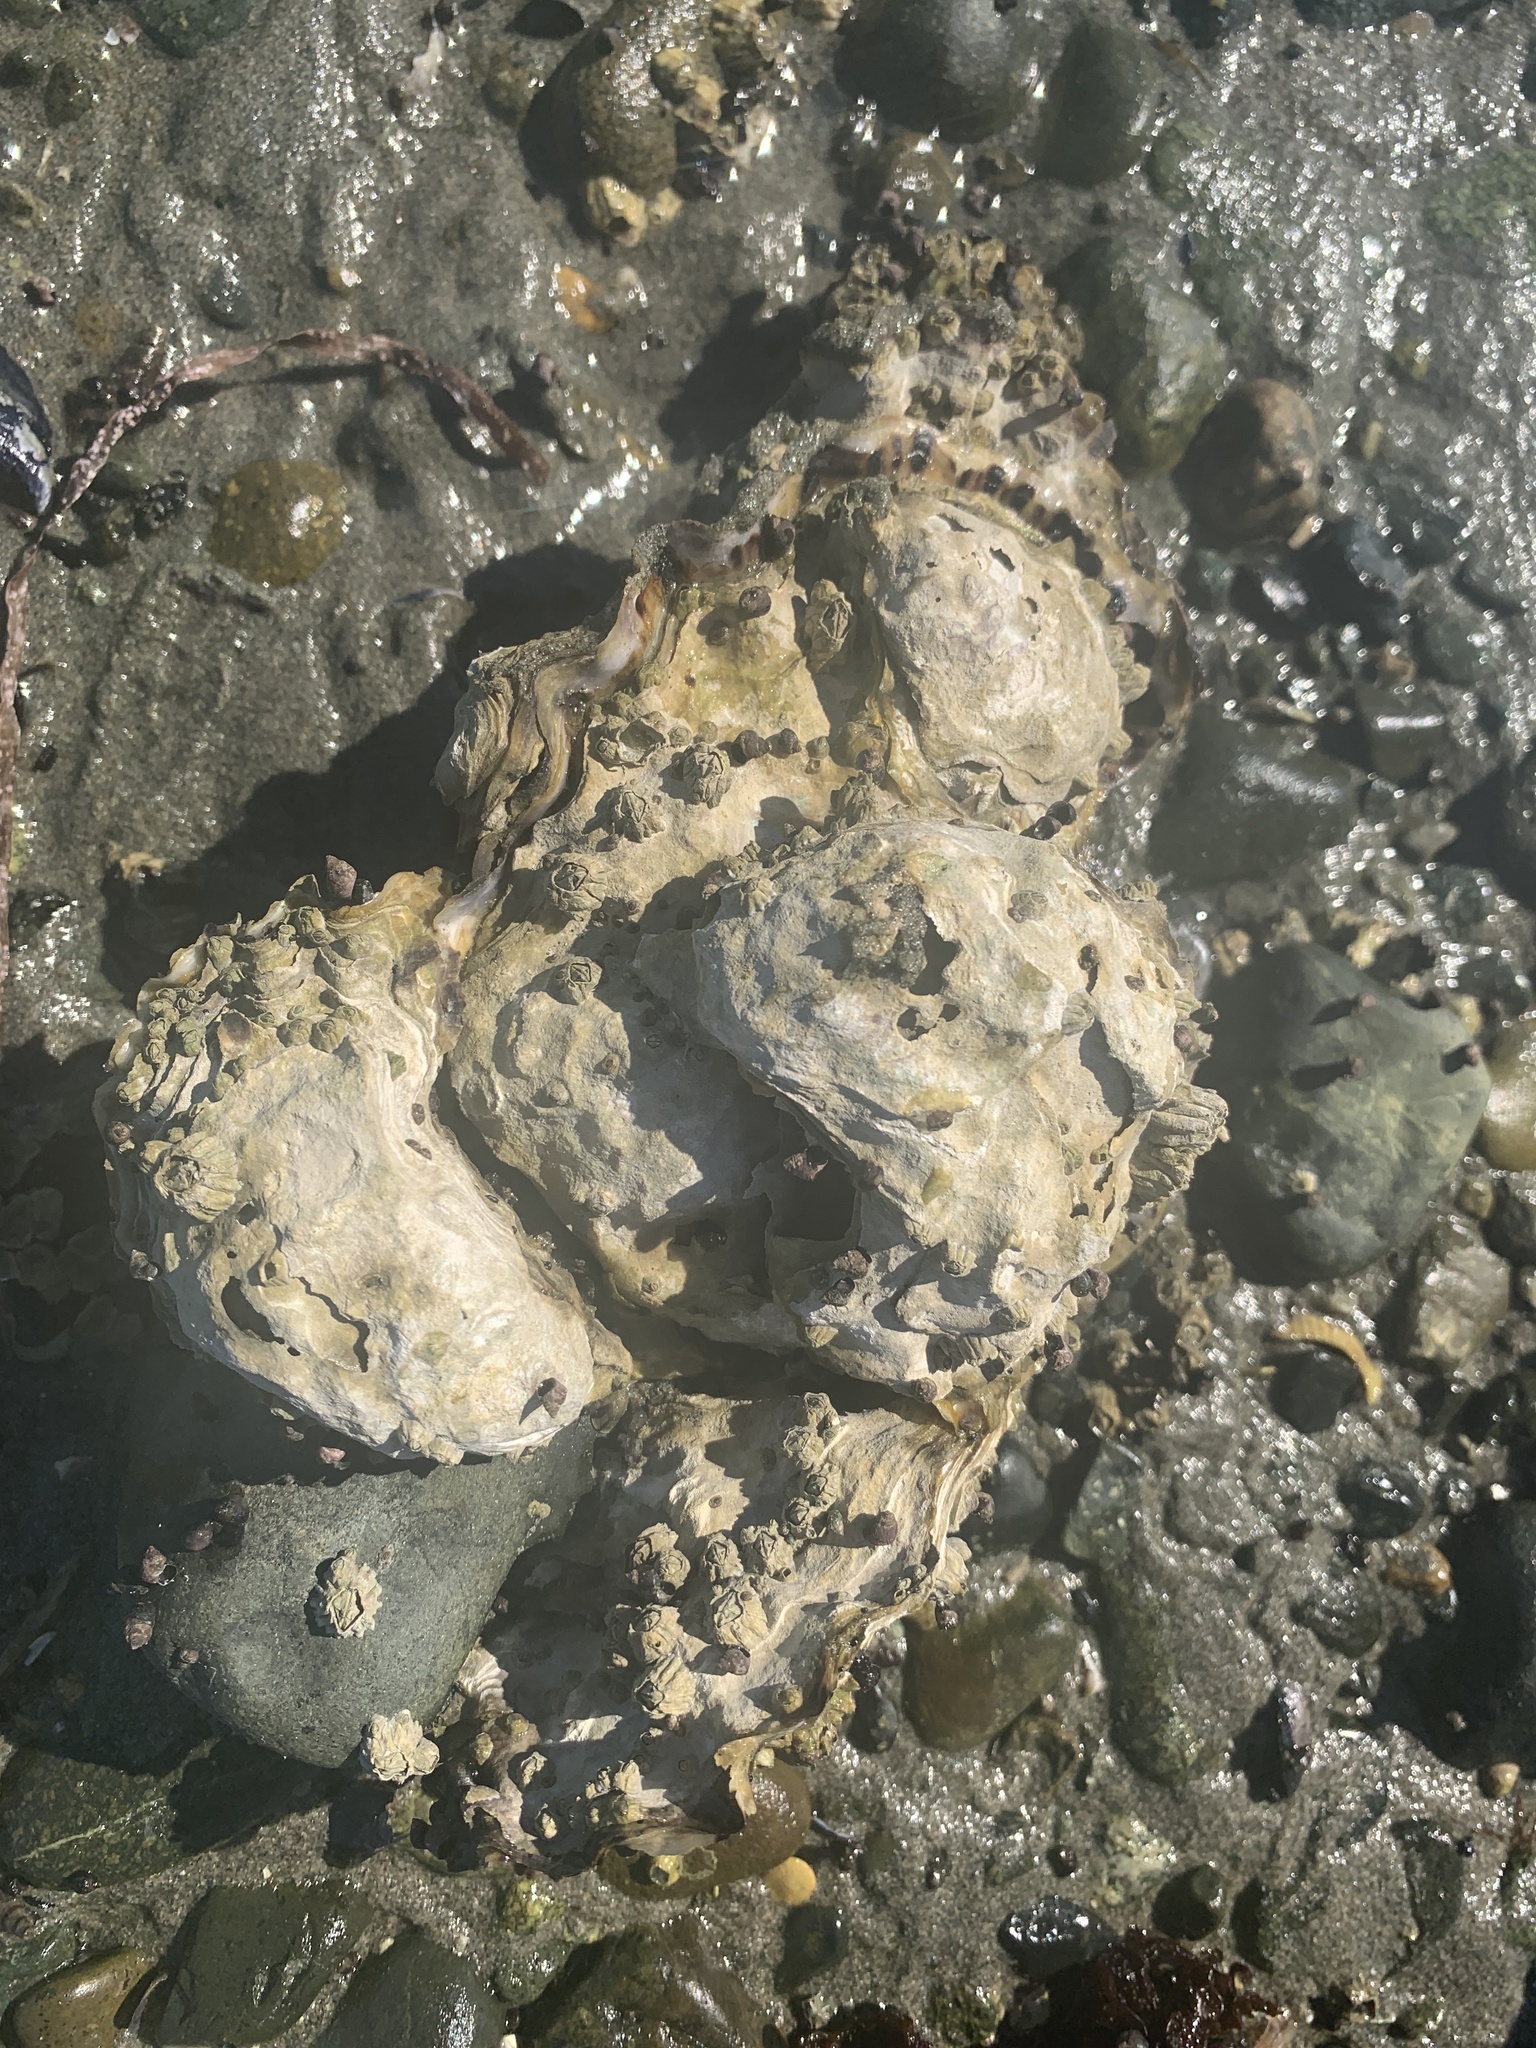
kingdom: Animalia
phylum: Mollusca
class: Bivalvia
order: Ostreida
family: Ostreidae
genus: Magallana
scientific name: Magallana gigas
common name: Pacific oyster
